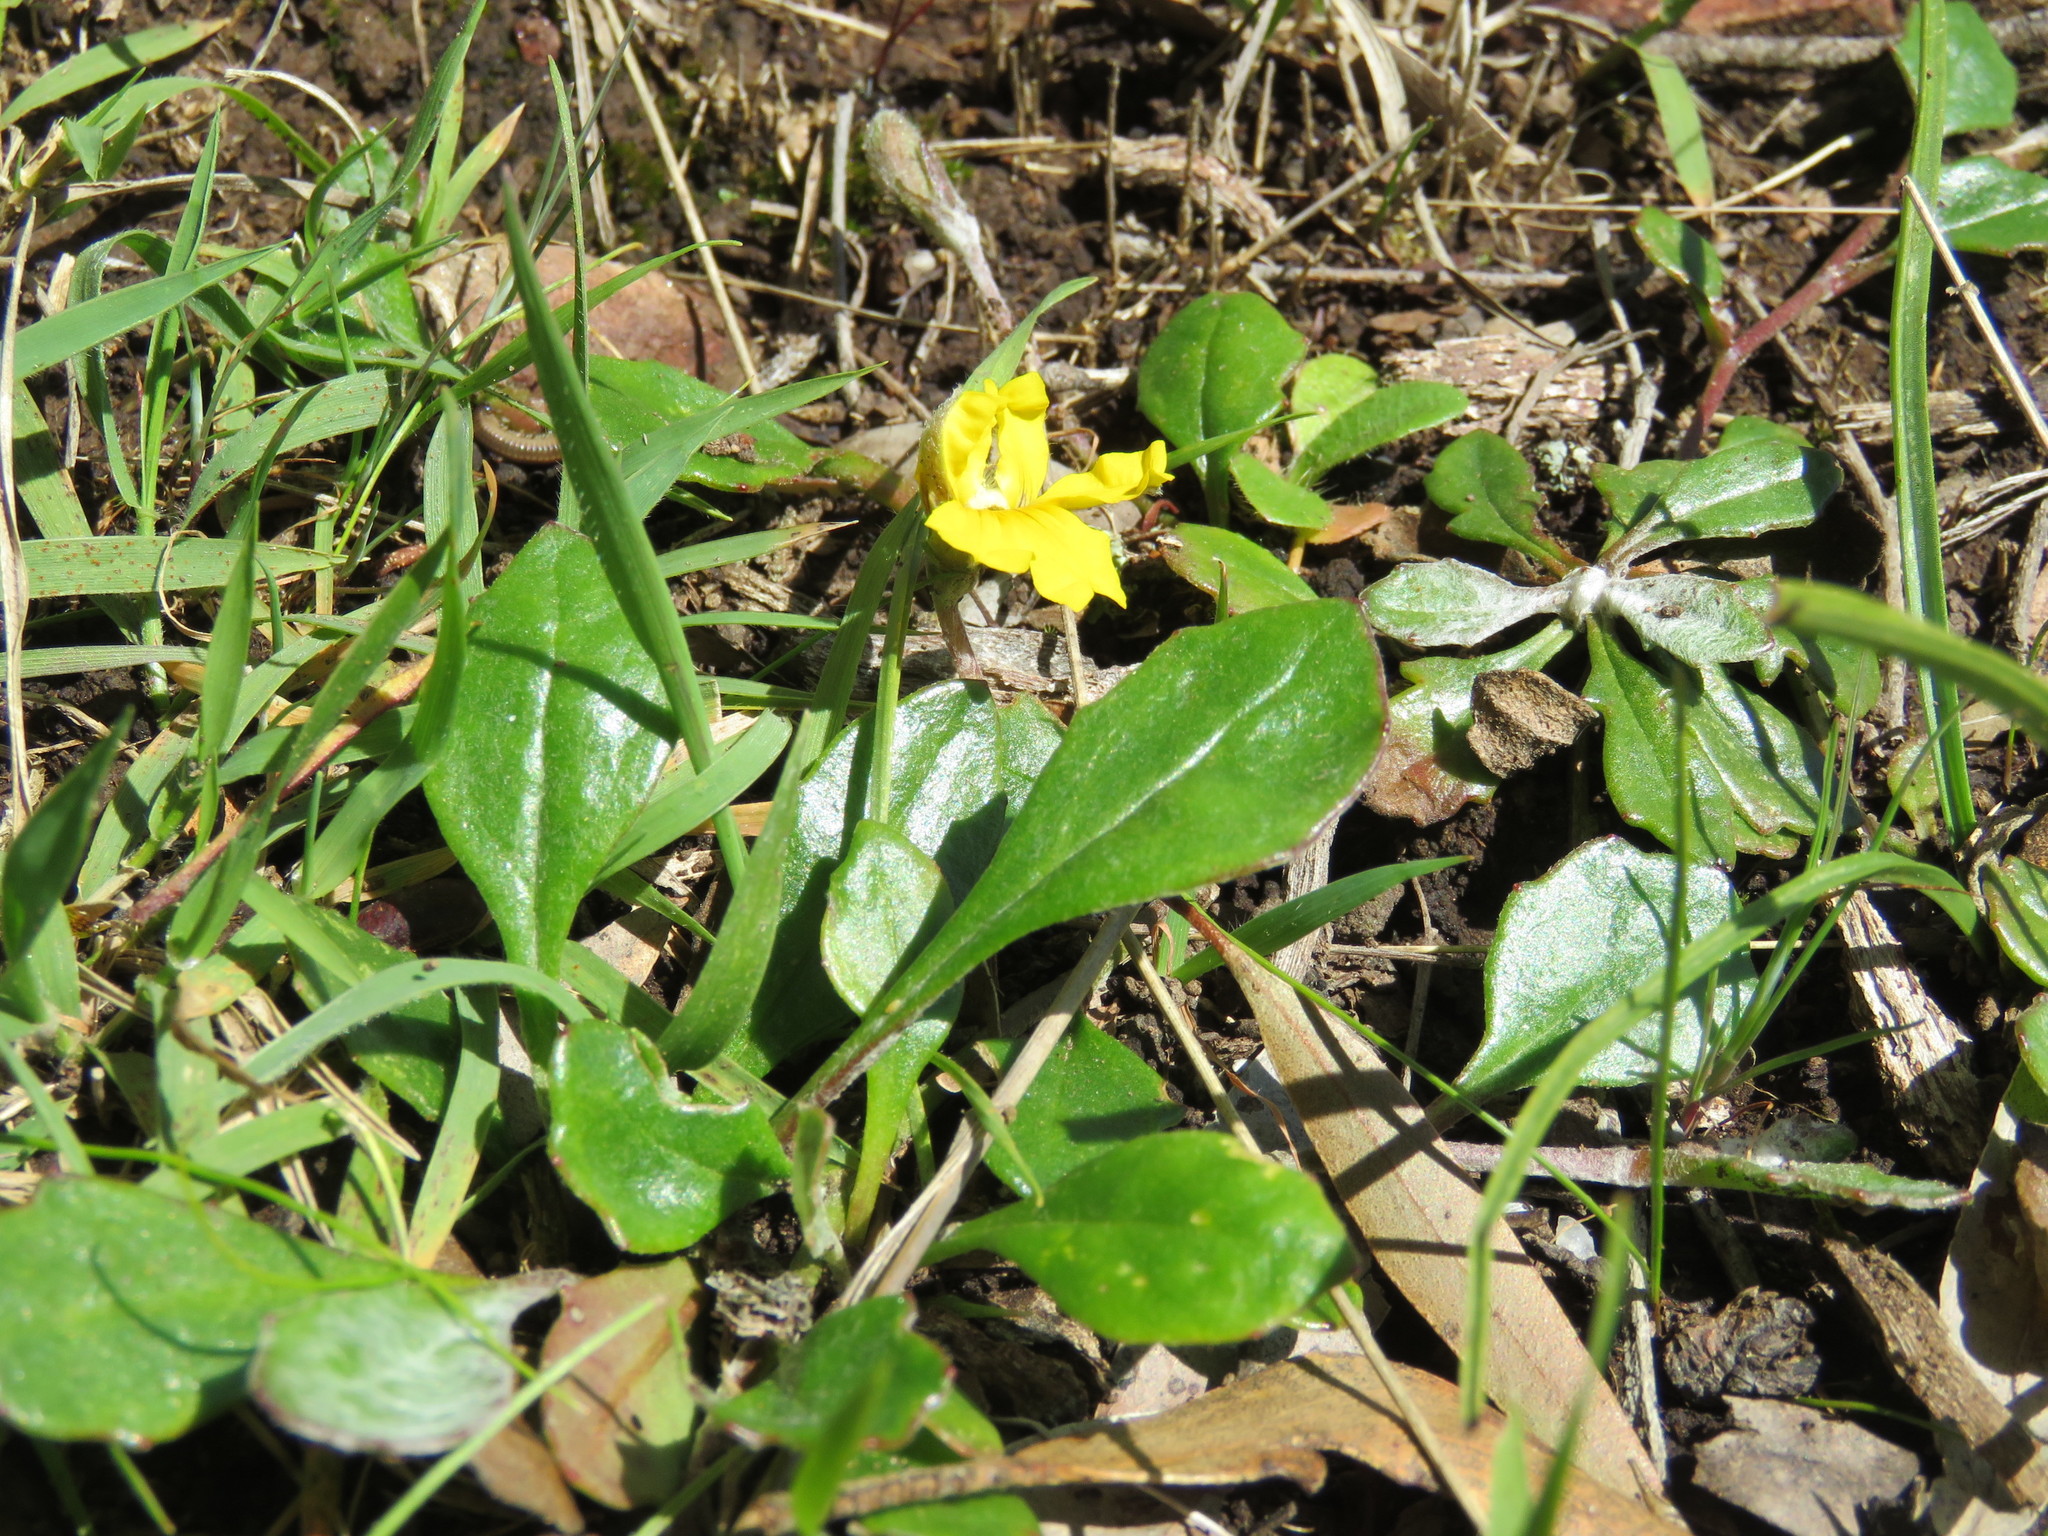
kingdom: Plantae
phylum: Tracheophyta
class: Magnoliopsida
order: Asterales
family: Goodeniaceae
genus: Goodenia
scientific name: Goodenia lanata
